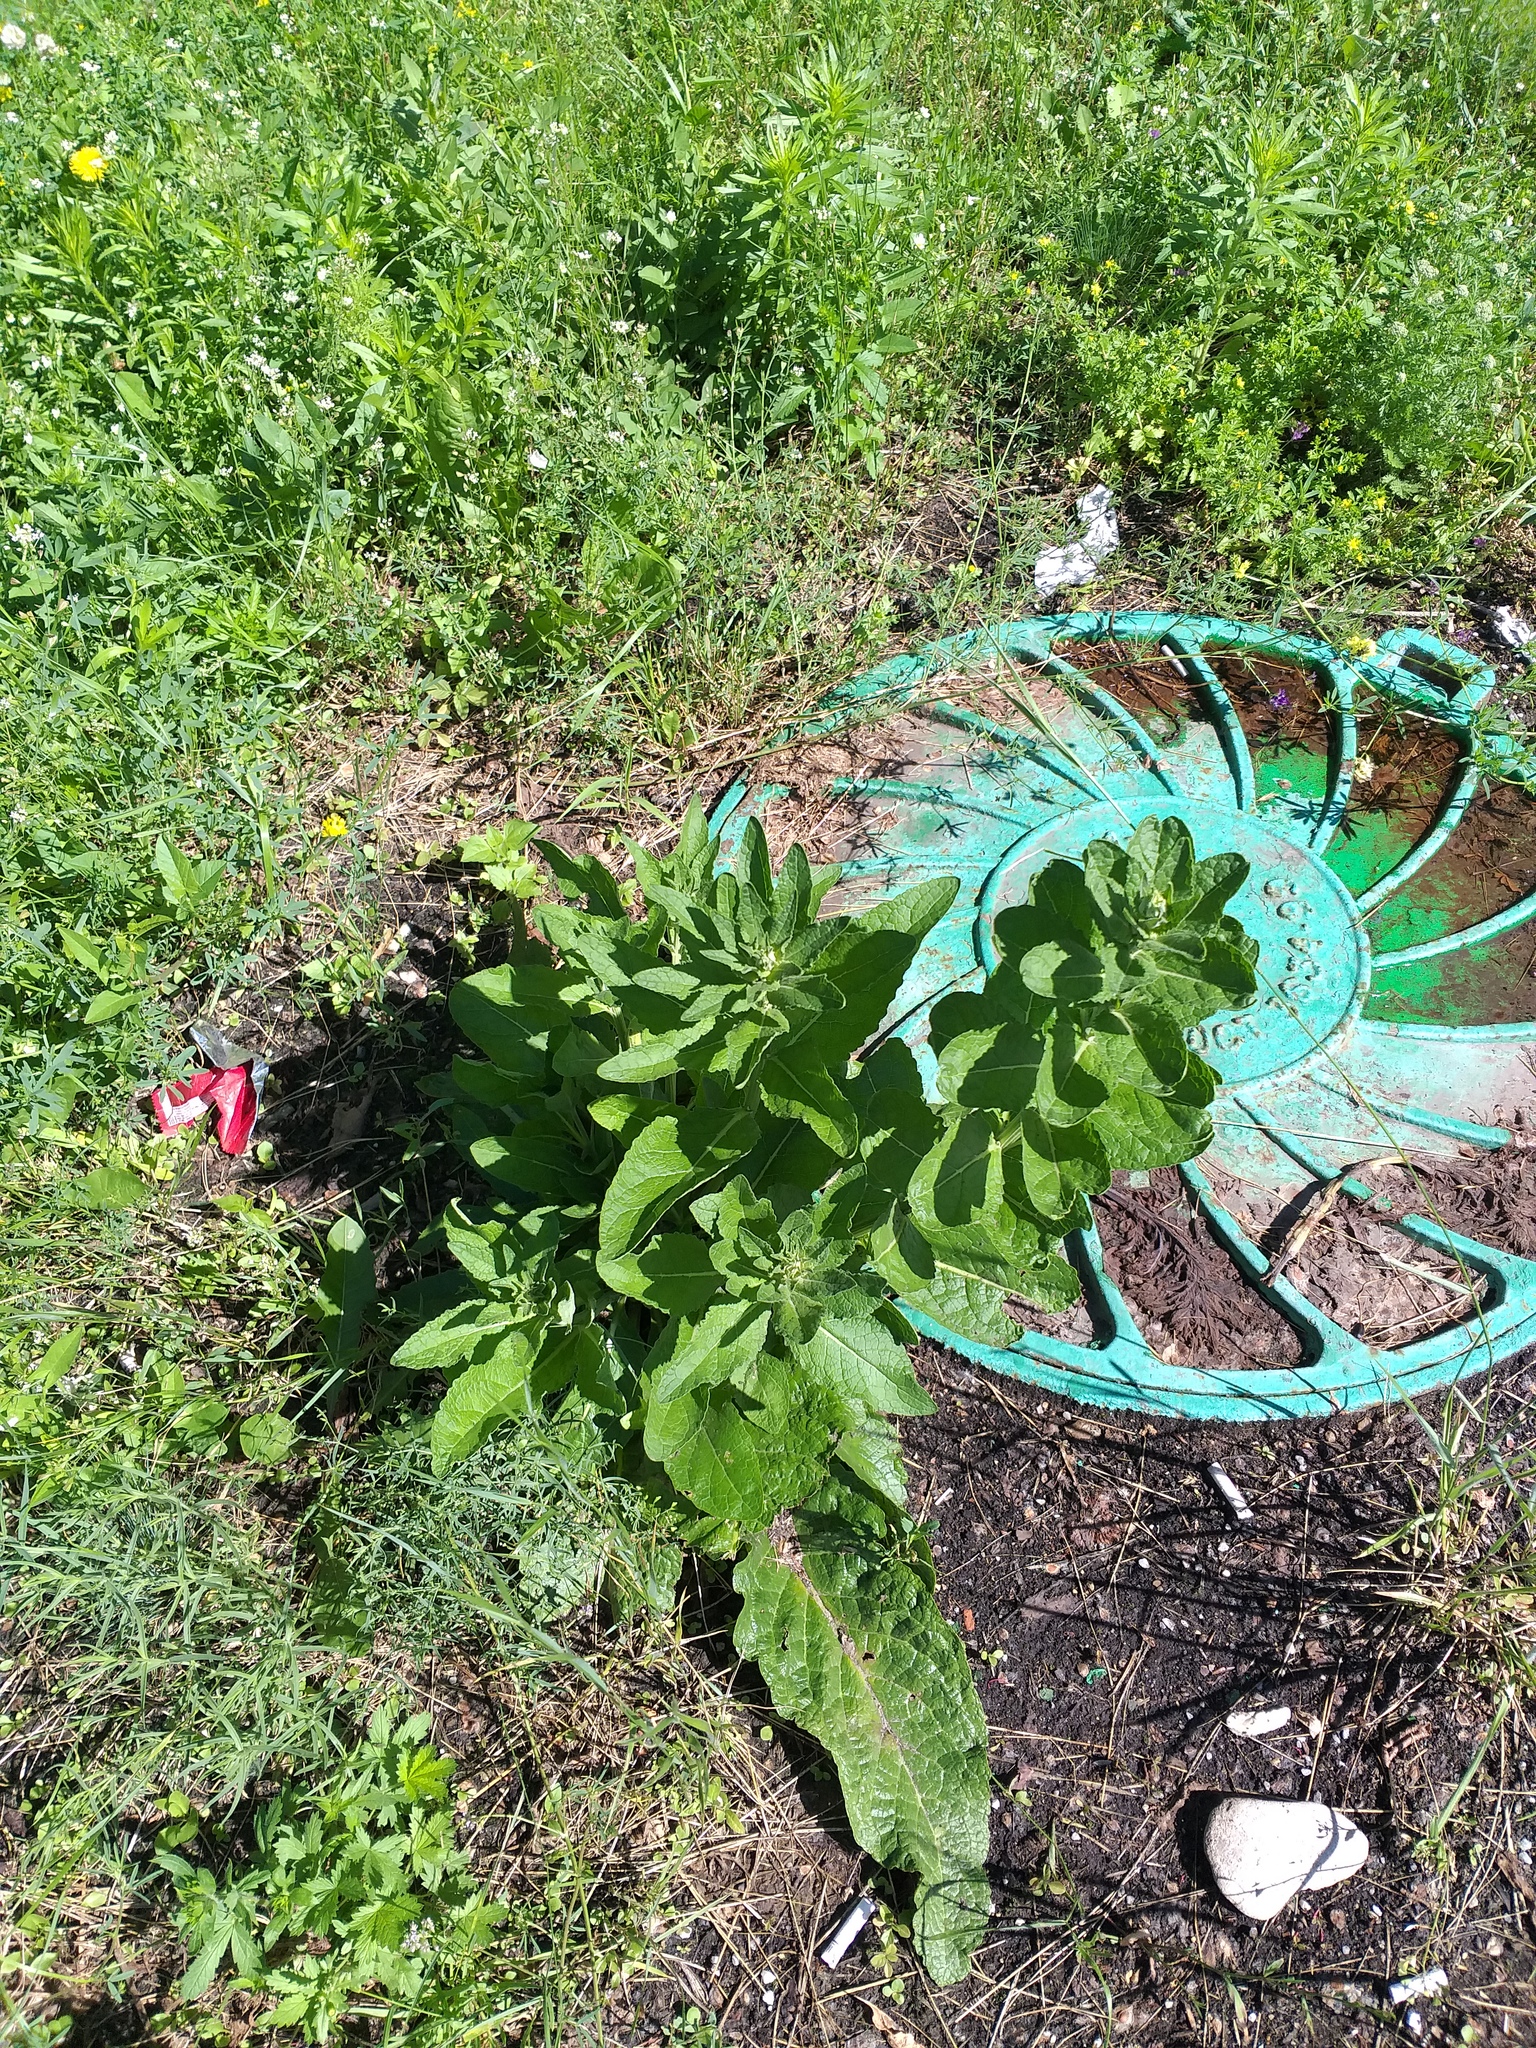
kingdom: Plantae
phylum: Tracheophyta
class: Magnoliopsida
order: Lamiales
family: Scrophulariaceae
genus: Verbascum
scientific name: Verbascum lychnitis
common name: White mullein
